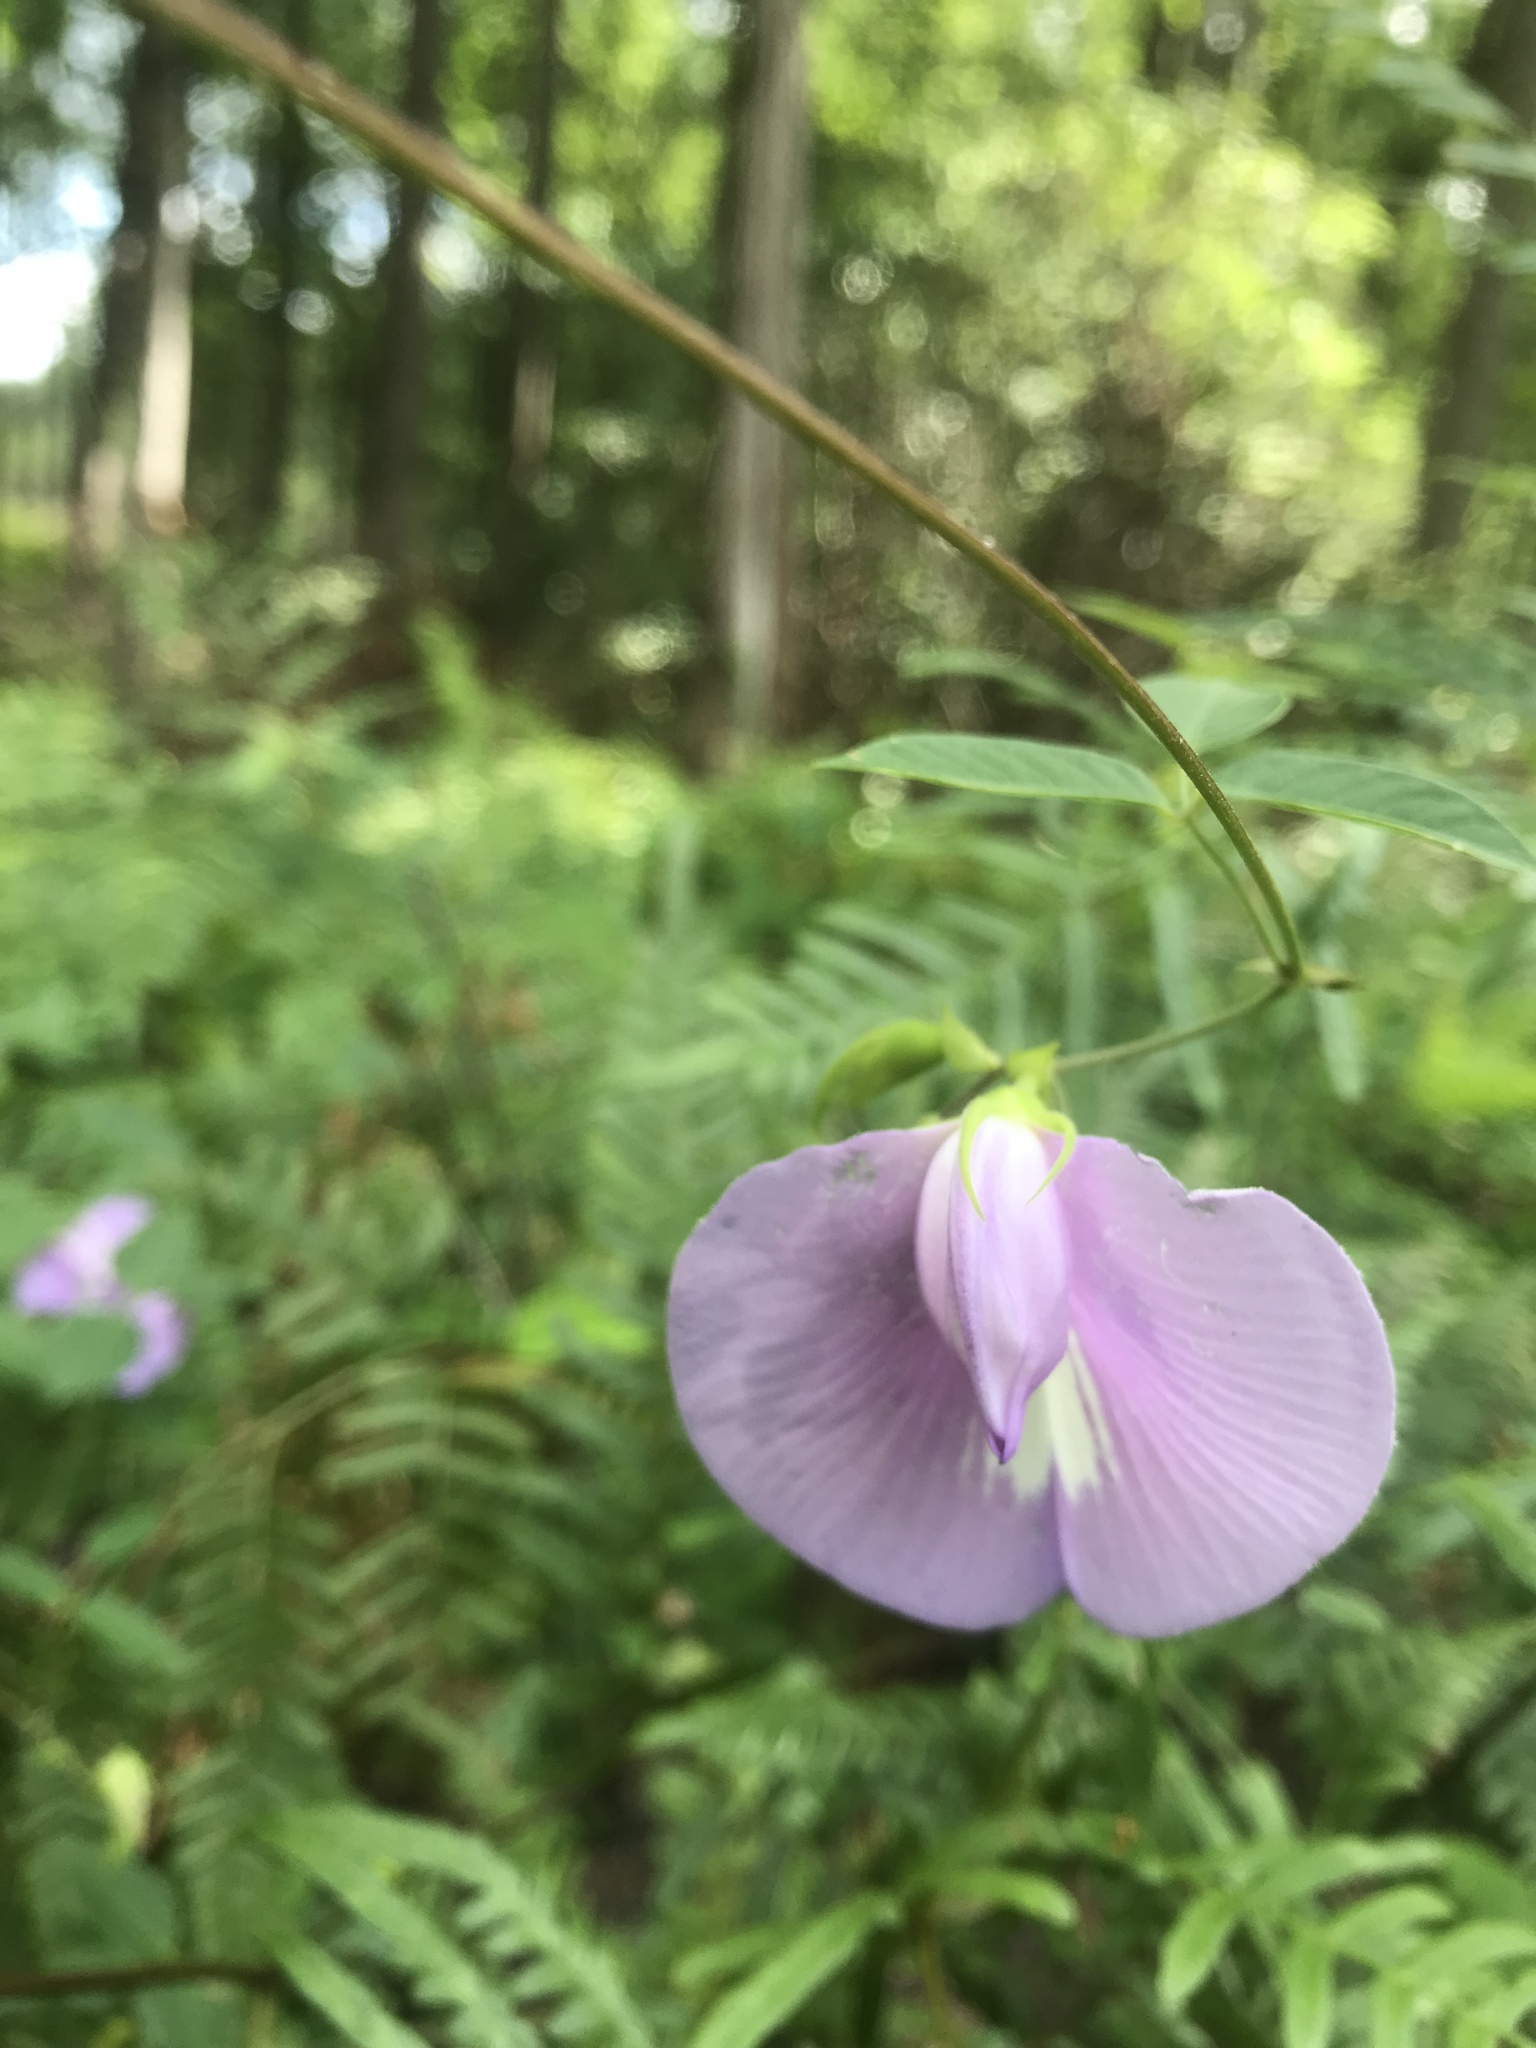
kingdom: Plantae
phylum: Tracheophyta
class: Magnoliopsida
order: Fabales
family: Fabaceae
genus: Centrosema
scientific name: Centrosema virginianum
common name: Butterfly-pea
